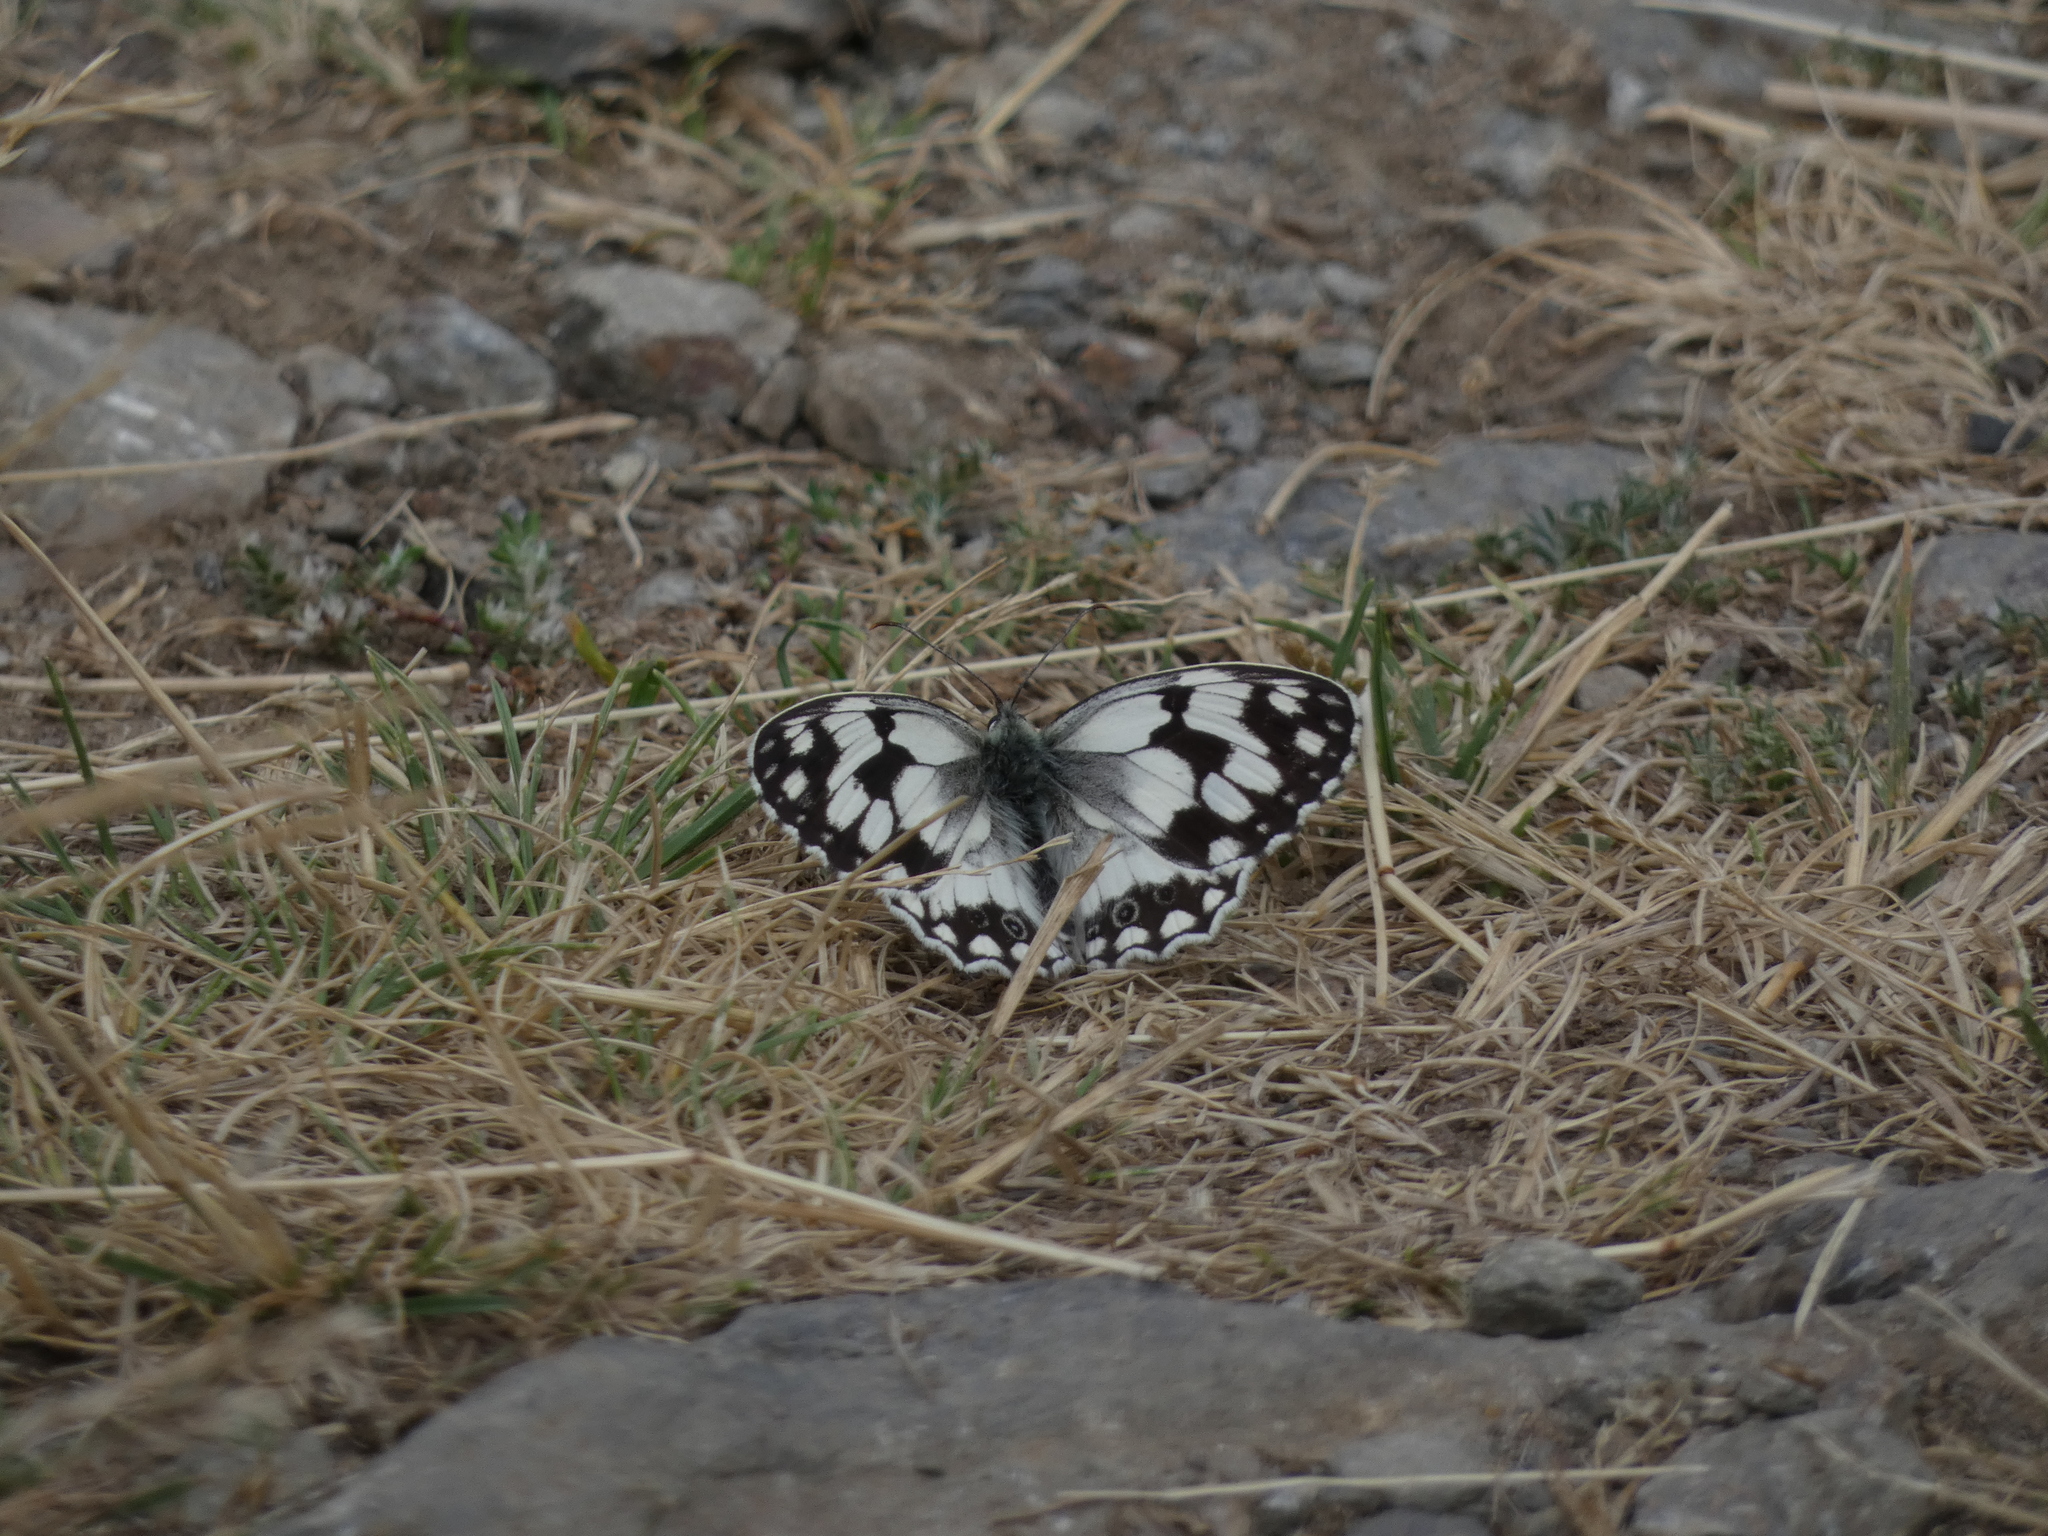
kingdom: Animalia
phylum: Arthropoda
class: Insecta
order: Lepidoptera
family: Nymphalidae
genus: Melanargia
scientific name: Melanargia lachesis
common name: Iberian marbled white
